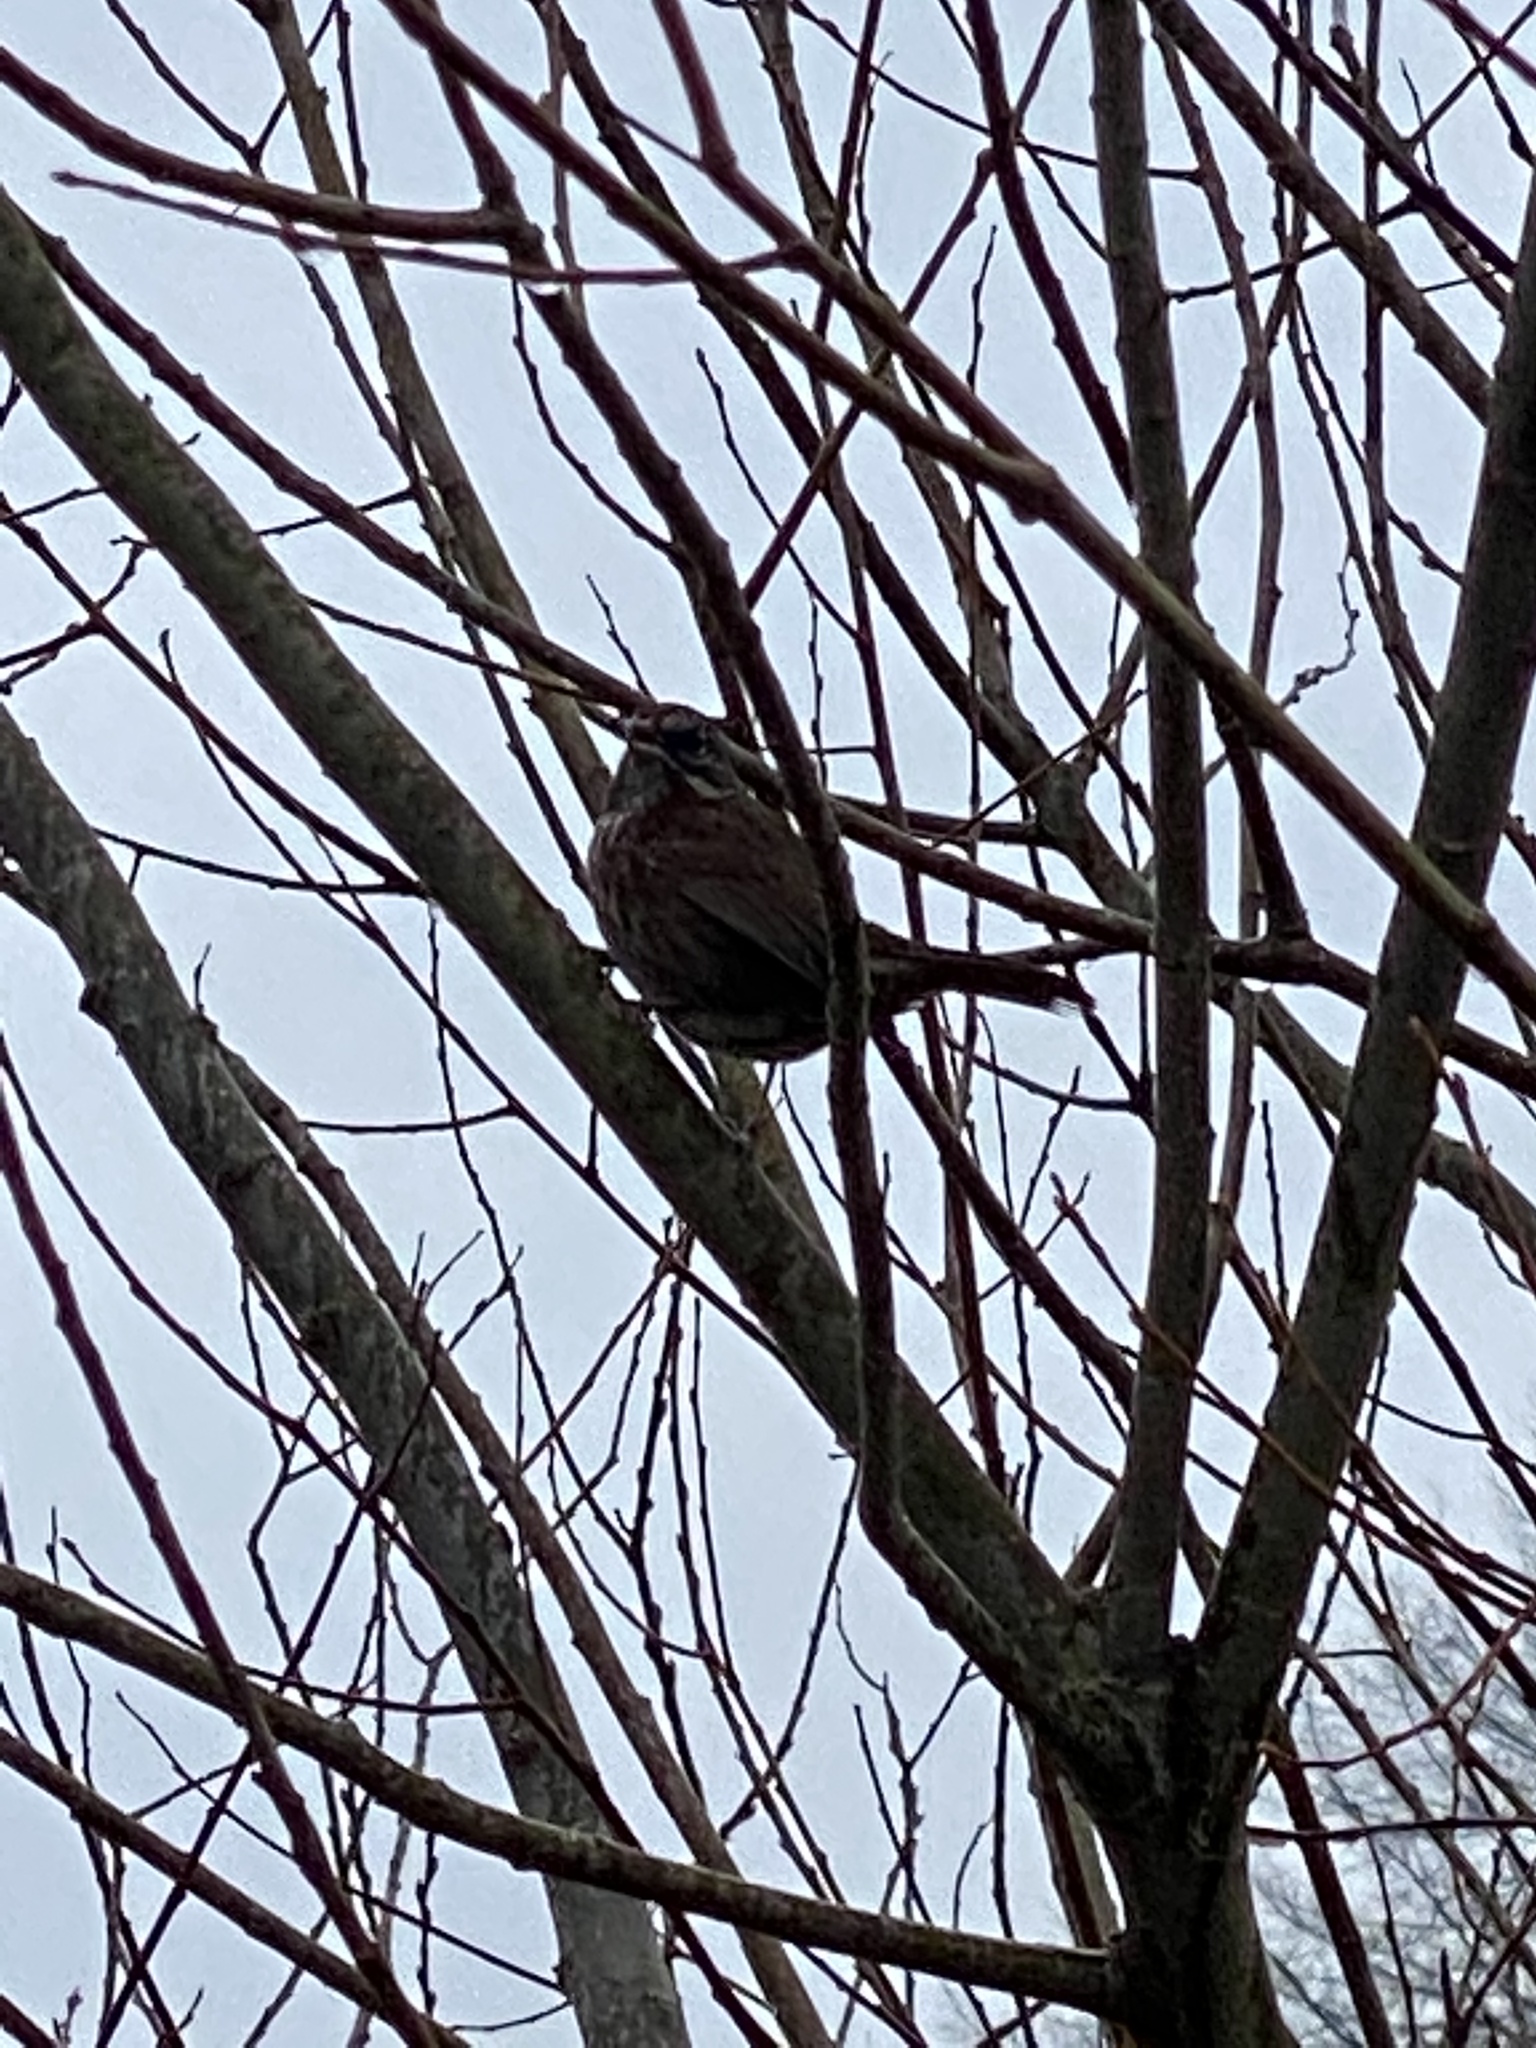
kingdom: Animalia
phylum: Chordata
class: Aves
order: Passeriformes
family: Passerellidae
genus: Melospiza
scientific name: Melospiza melodia
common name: Song sparrow
